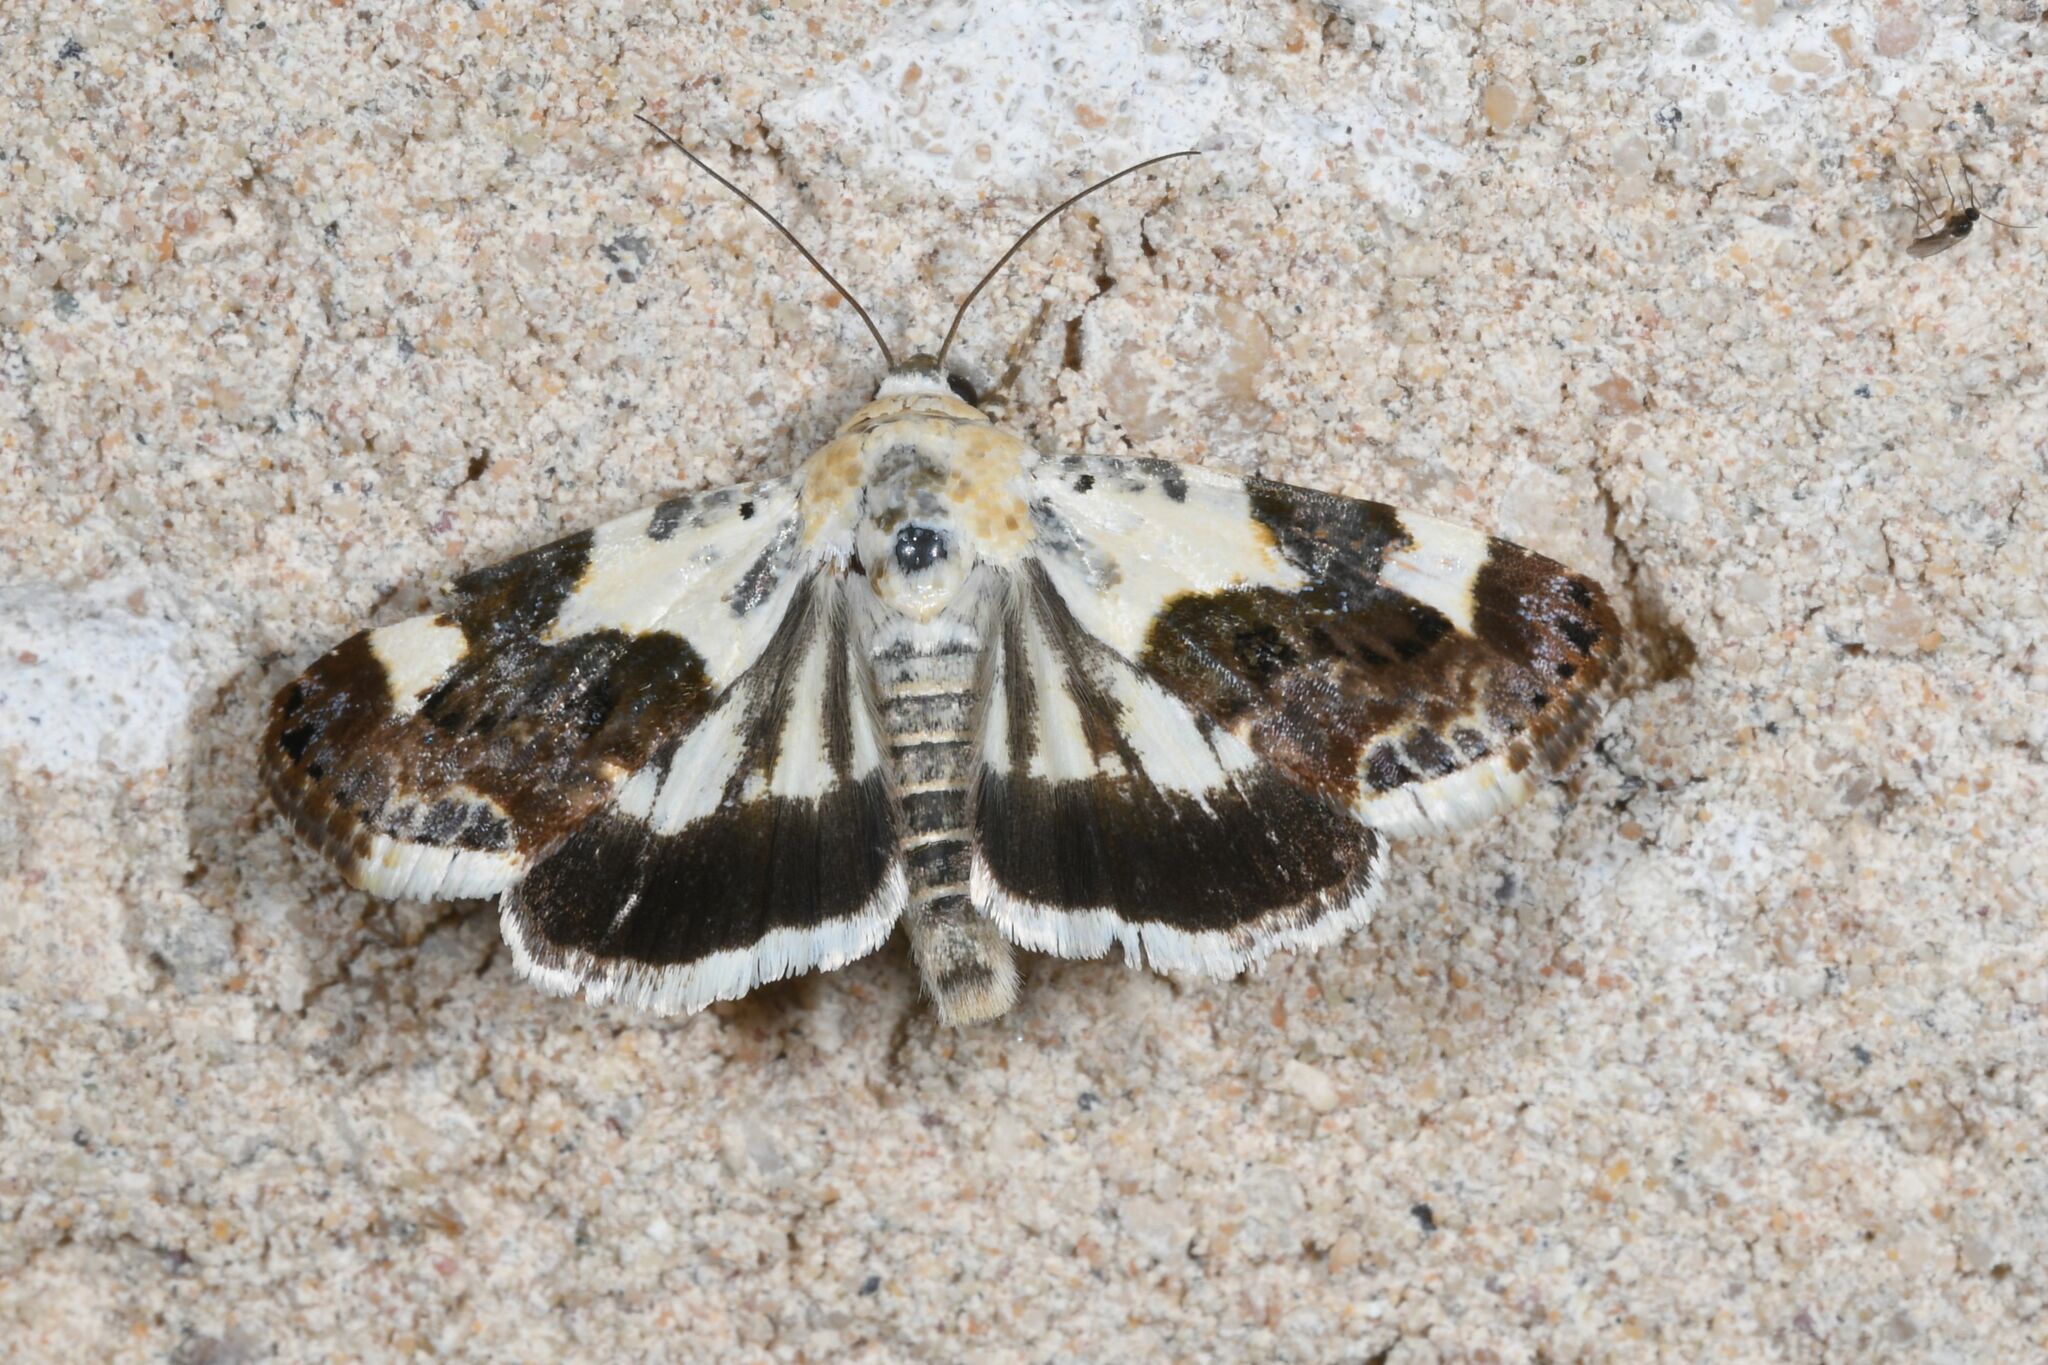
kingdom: Animalia
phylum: Arthropoda
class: Insecta
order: Lepidoptera
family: Noctuidae
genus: Acontia
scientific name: Acontia lucida
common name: Pale shoulder
